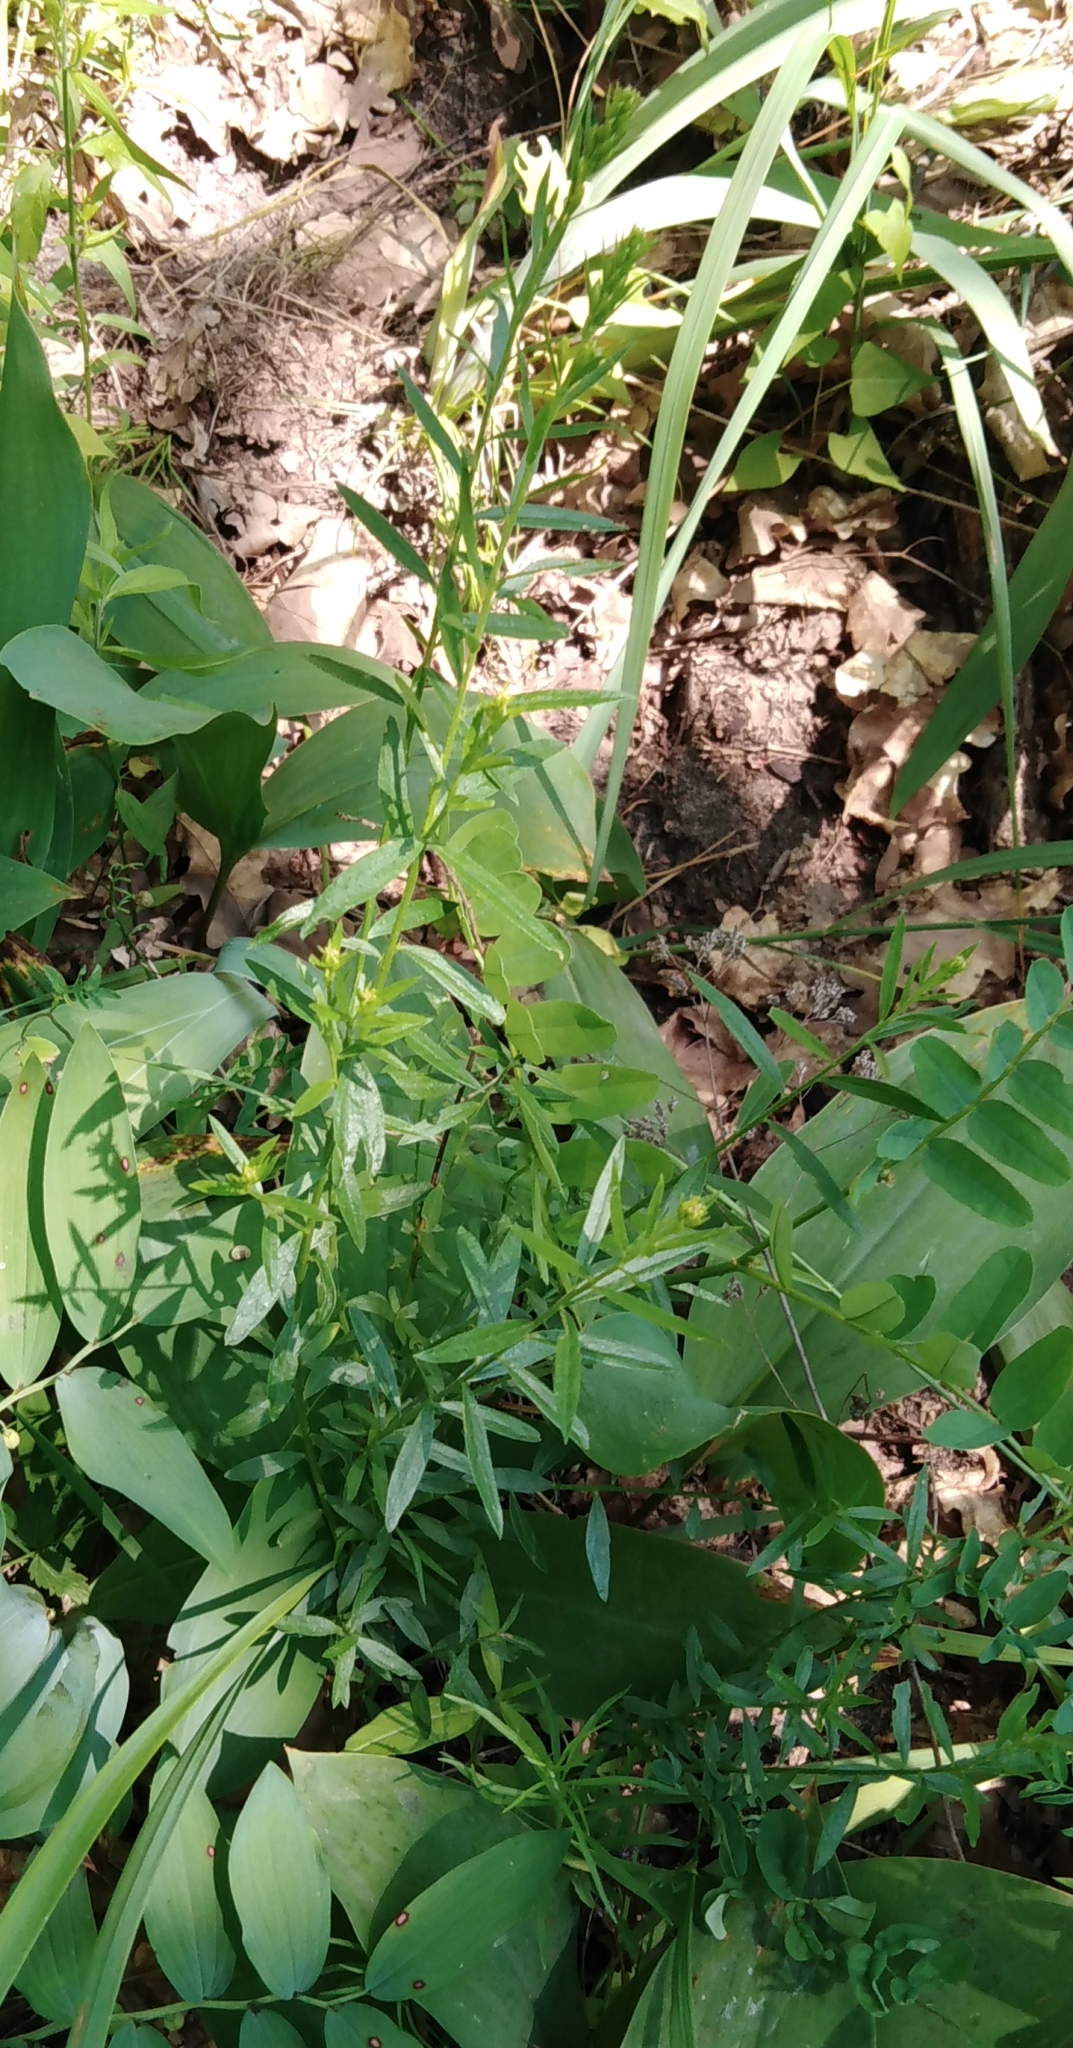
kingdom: Plantae
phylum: Tracheophyta
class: Magnoliopsida
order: Fabales
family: Fabaceae
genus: Genista
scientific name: Genista tinctoria
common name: Dyer's greenweed
